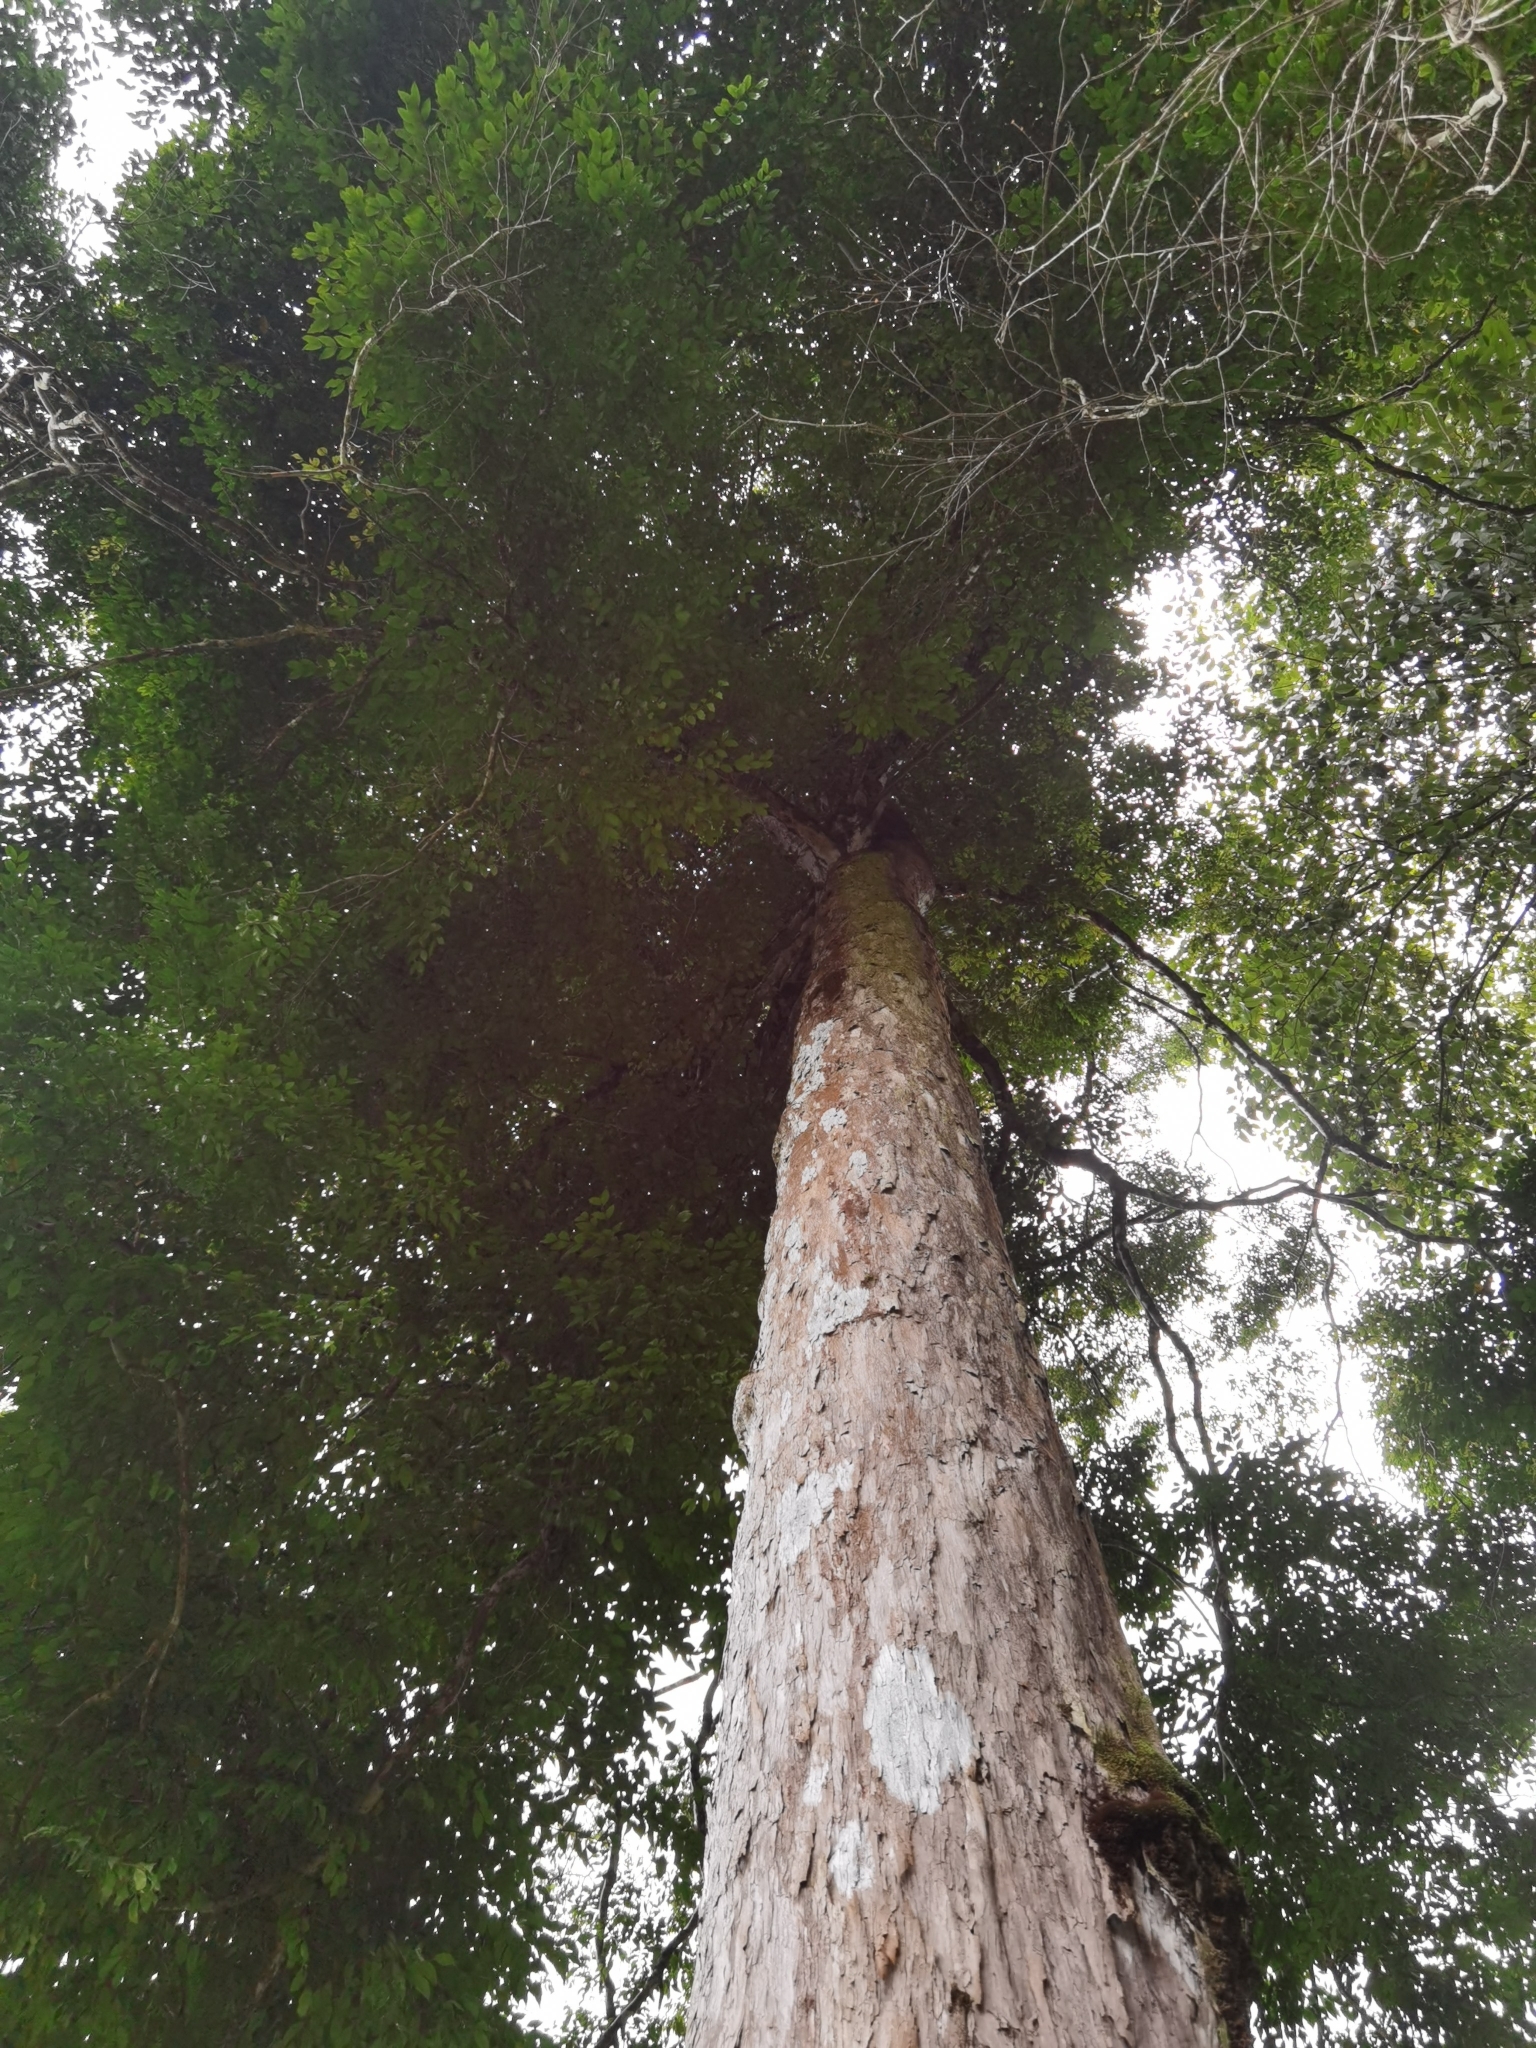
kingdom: Plantae
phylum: Tracheophyta
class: Magnoliopsida
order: Myrtales
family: Melastomataceae
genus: Mouriri
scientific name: Mouriri tuberculata
